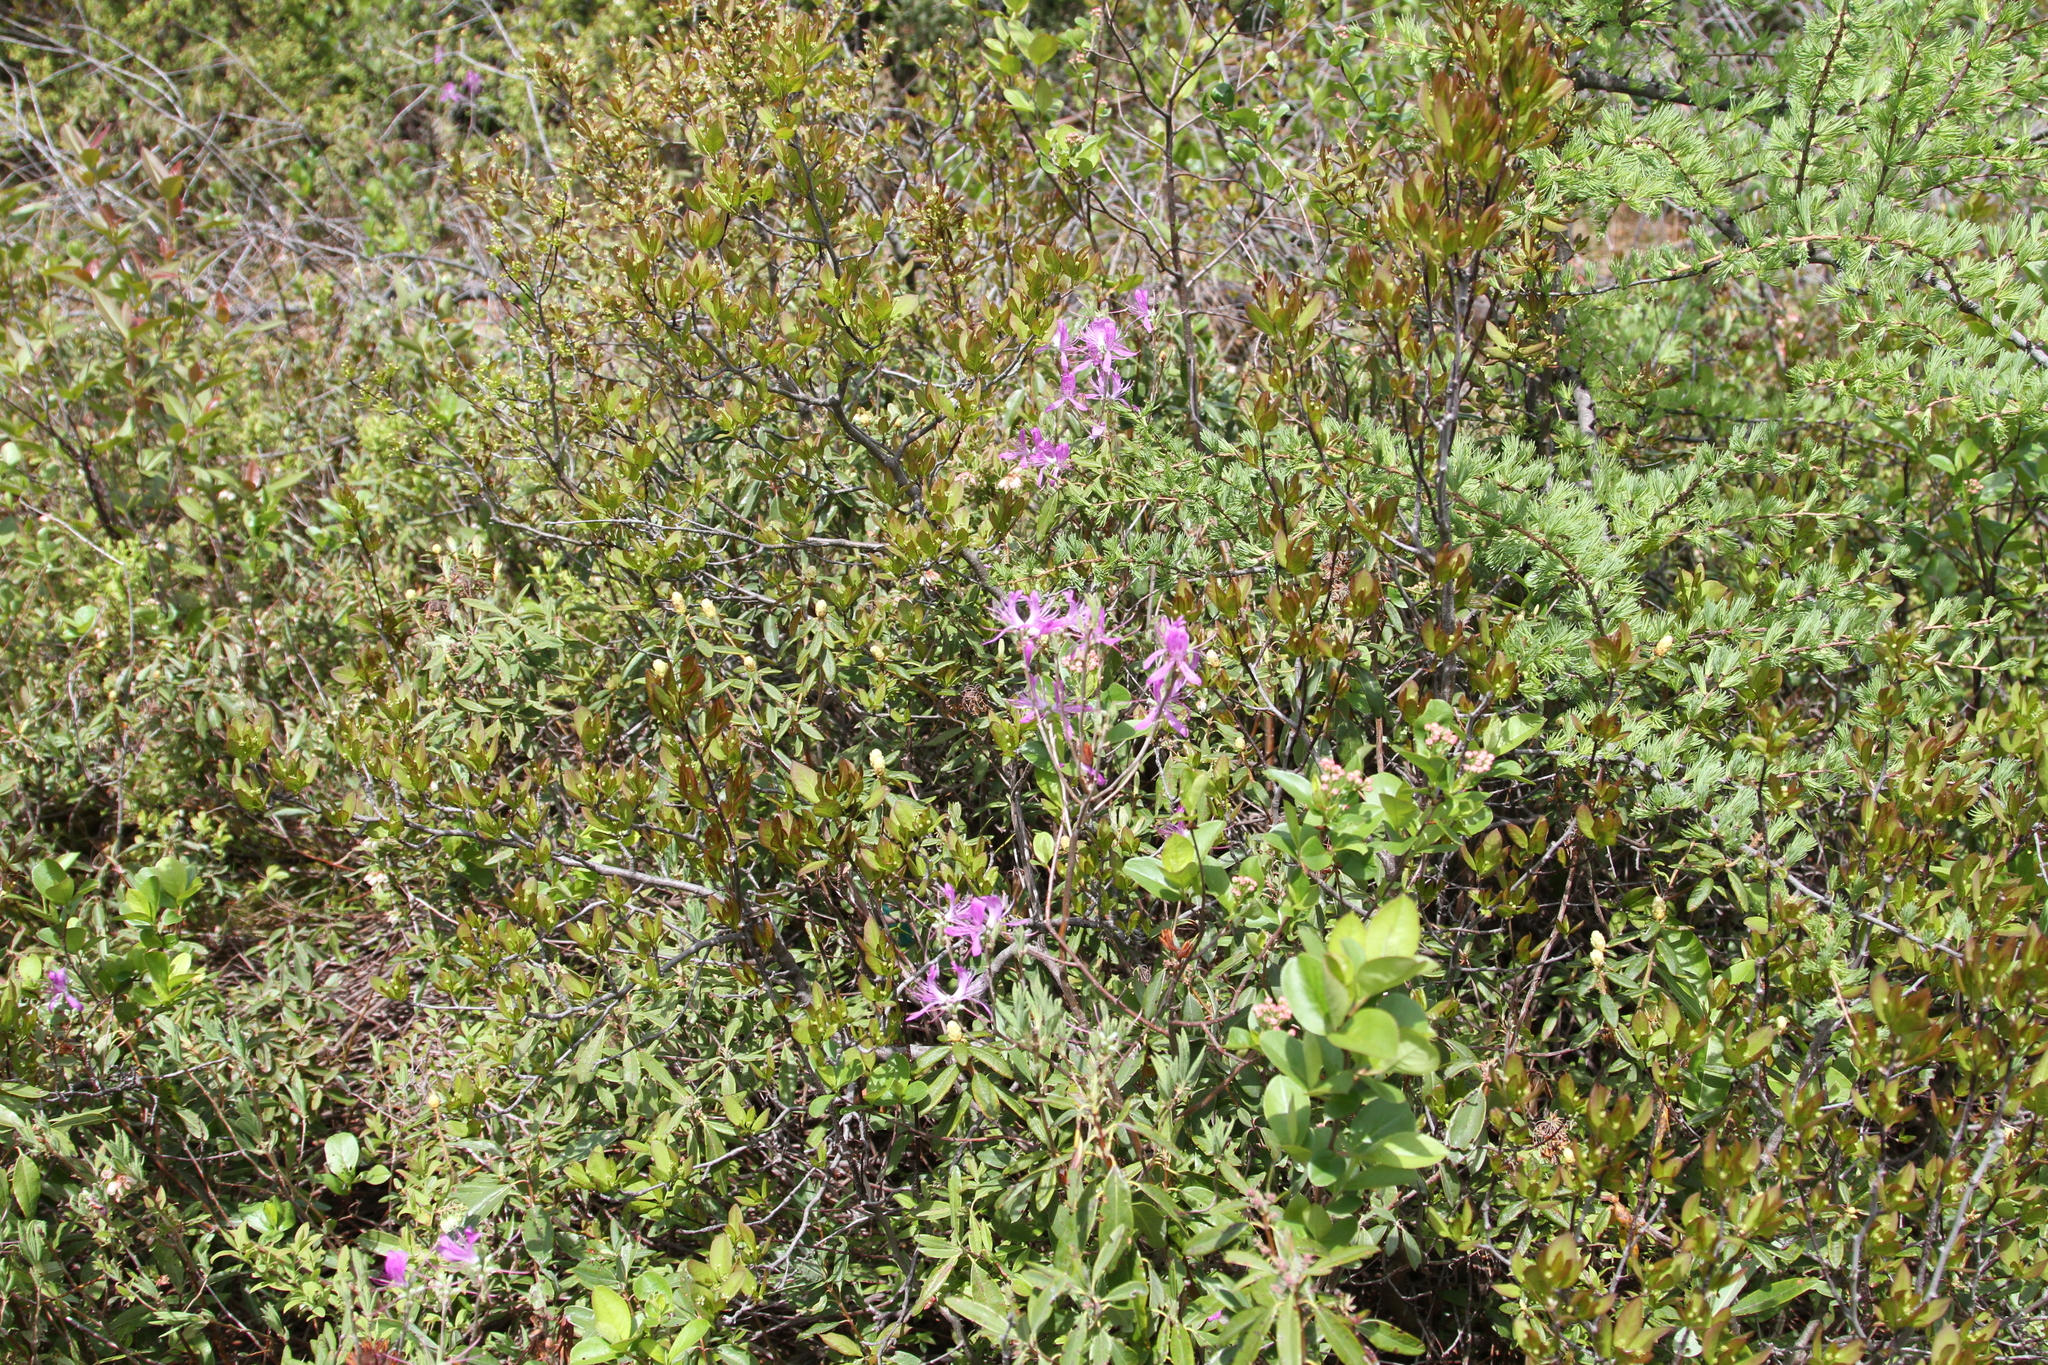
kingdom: Plantae
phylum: Tracheophyta
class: Magnoliopsida
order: Ericales
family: Ericaceae
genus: Rhododendron
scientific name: Rhododendron canadense
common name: Rhodora
